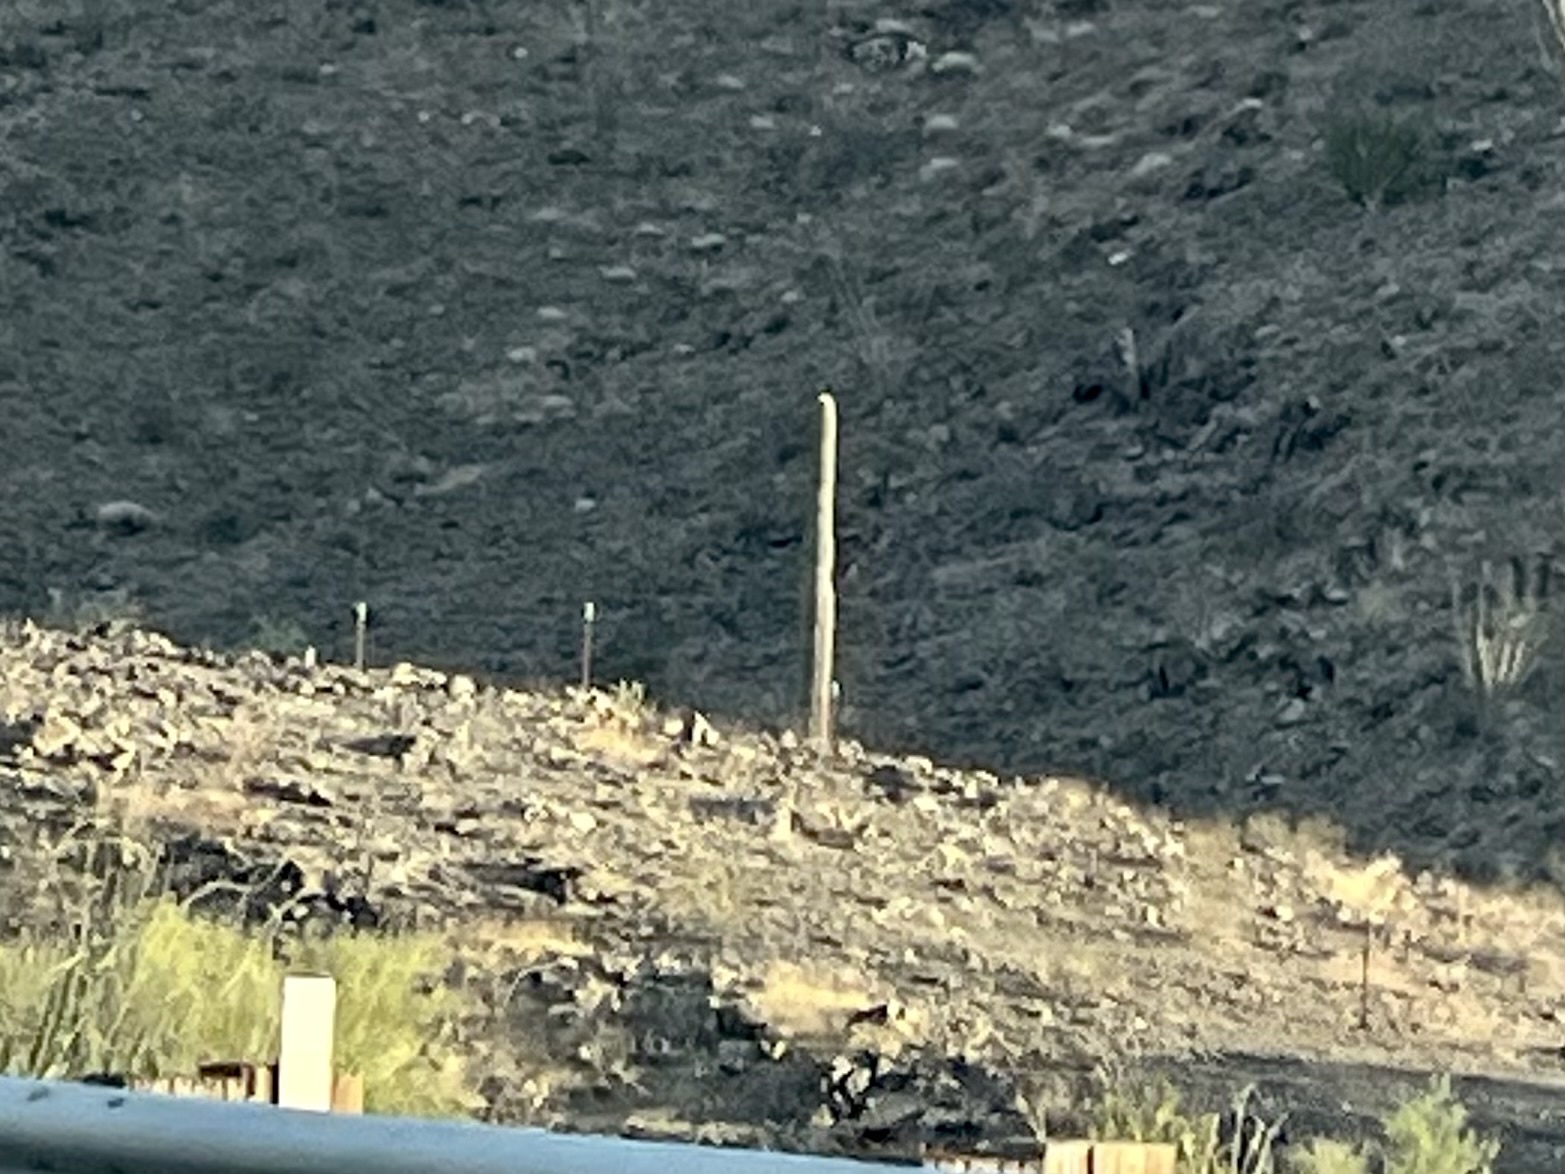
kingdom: Plantae
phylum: Tracheophyta
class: Magnoliopsida
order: Caryophyllales
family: Cactaceae
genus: Carnegiea
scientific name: Carnegiea gigantea
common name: Saguaro
